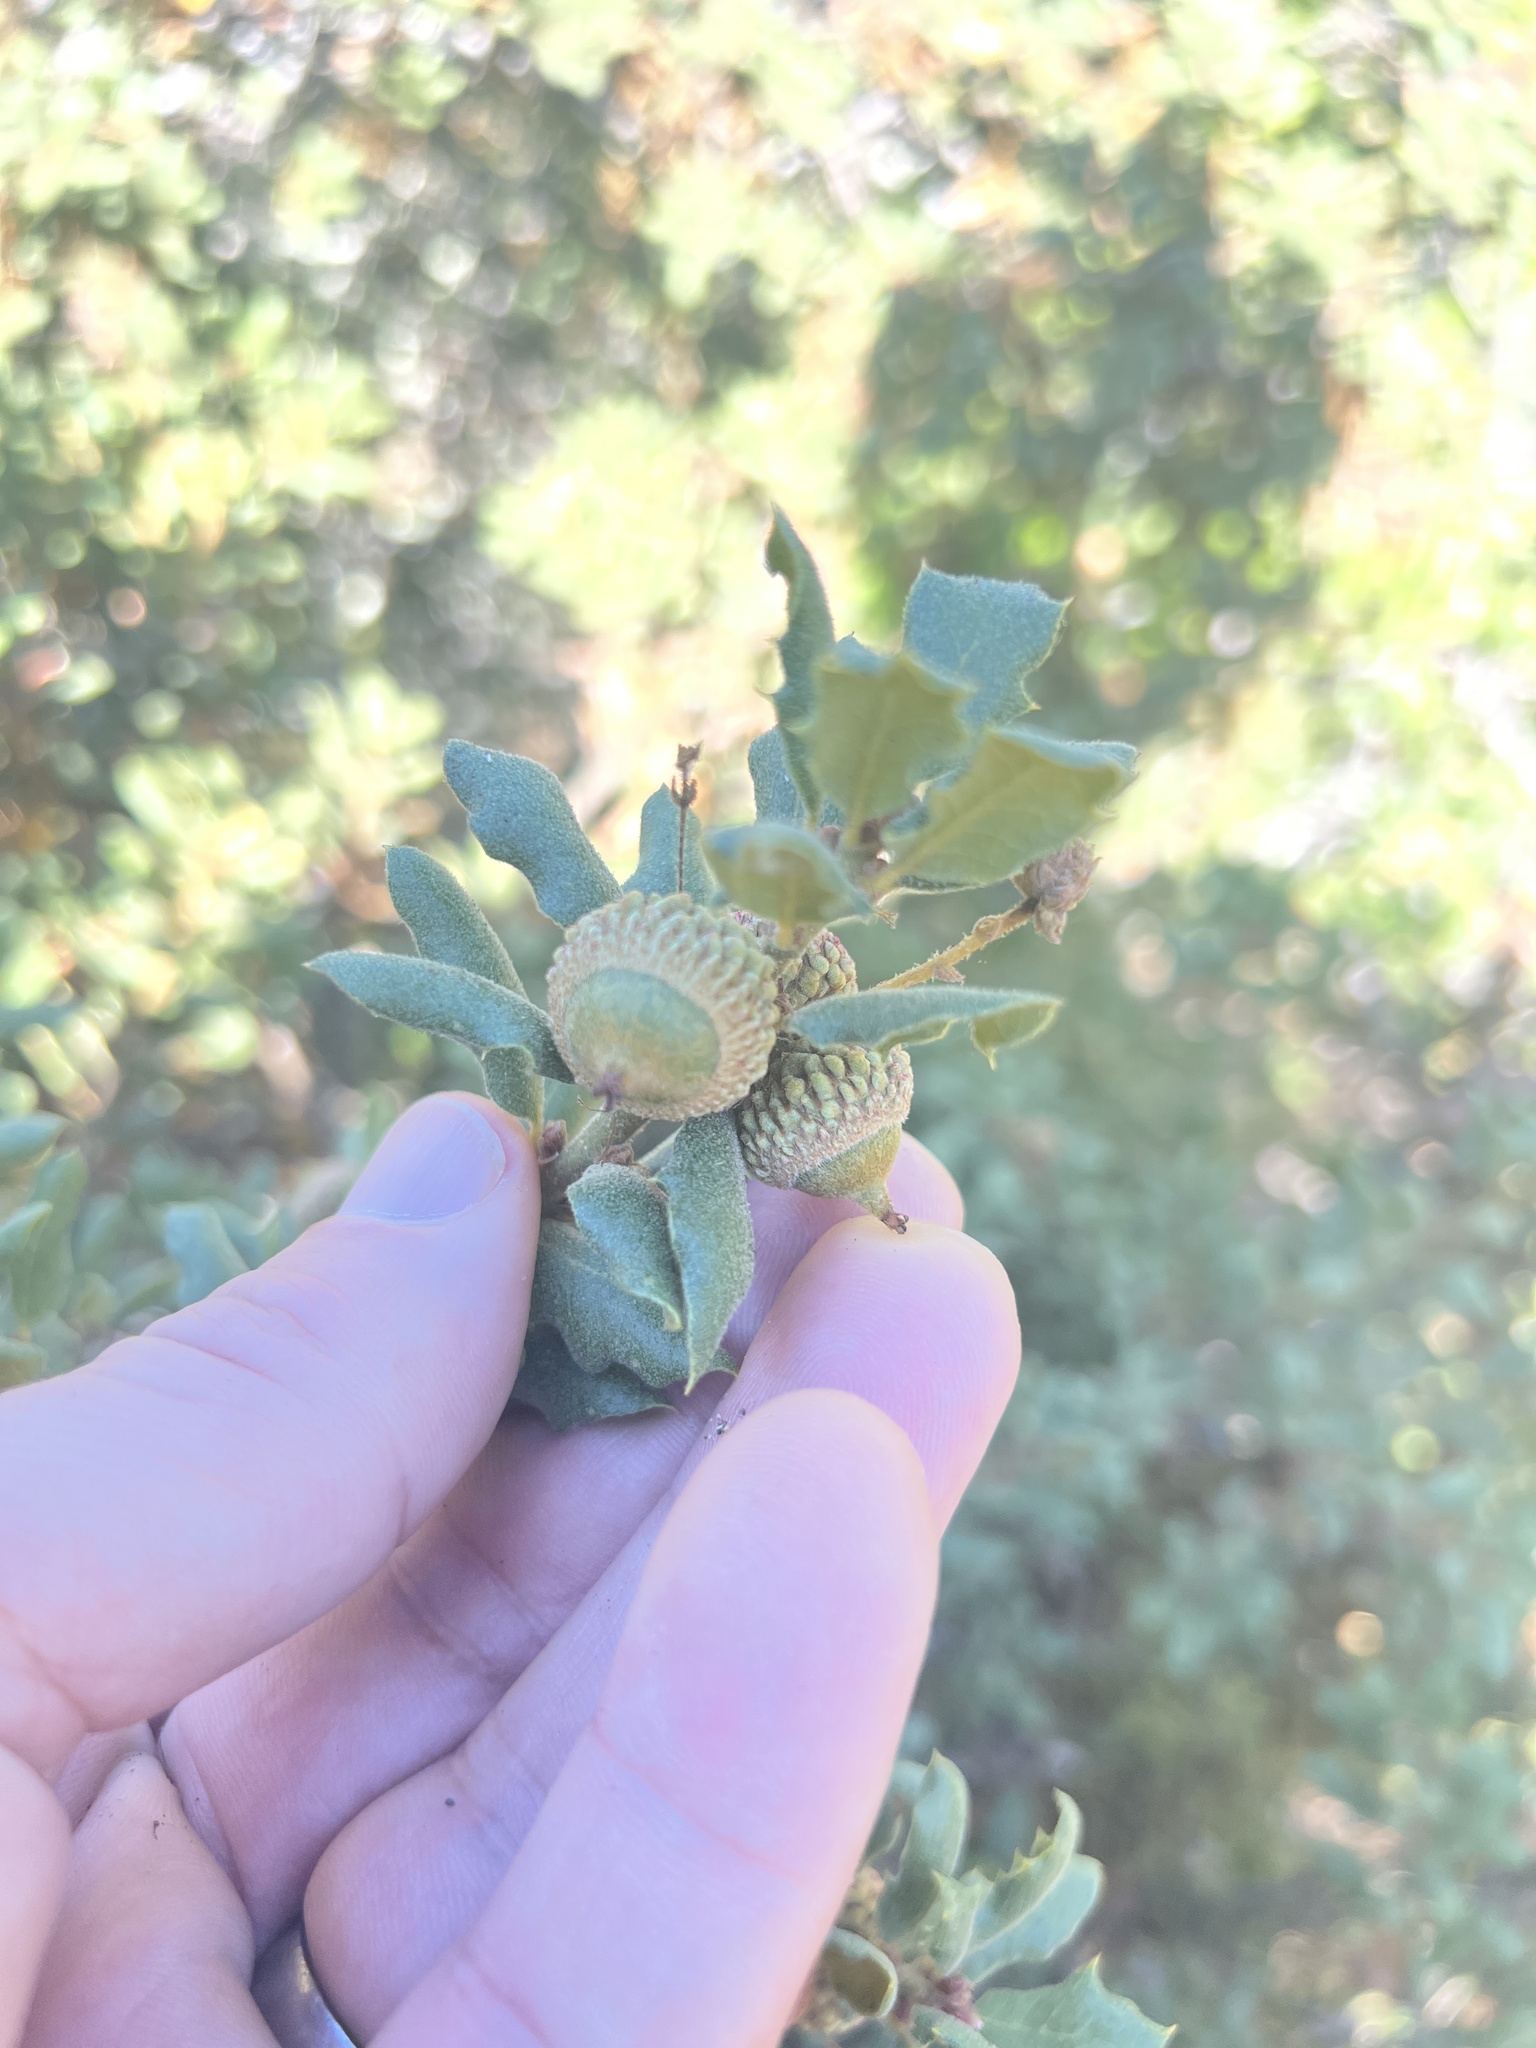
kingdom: Plantae
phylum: Tracheophyta
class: Magnoliopsida
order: Fagales
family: Fagaceae
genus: Quercus
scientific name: Quercus durata
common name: Leather oak
